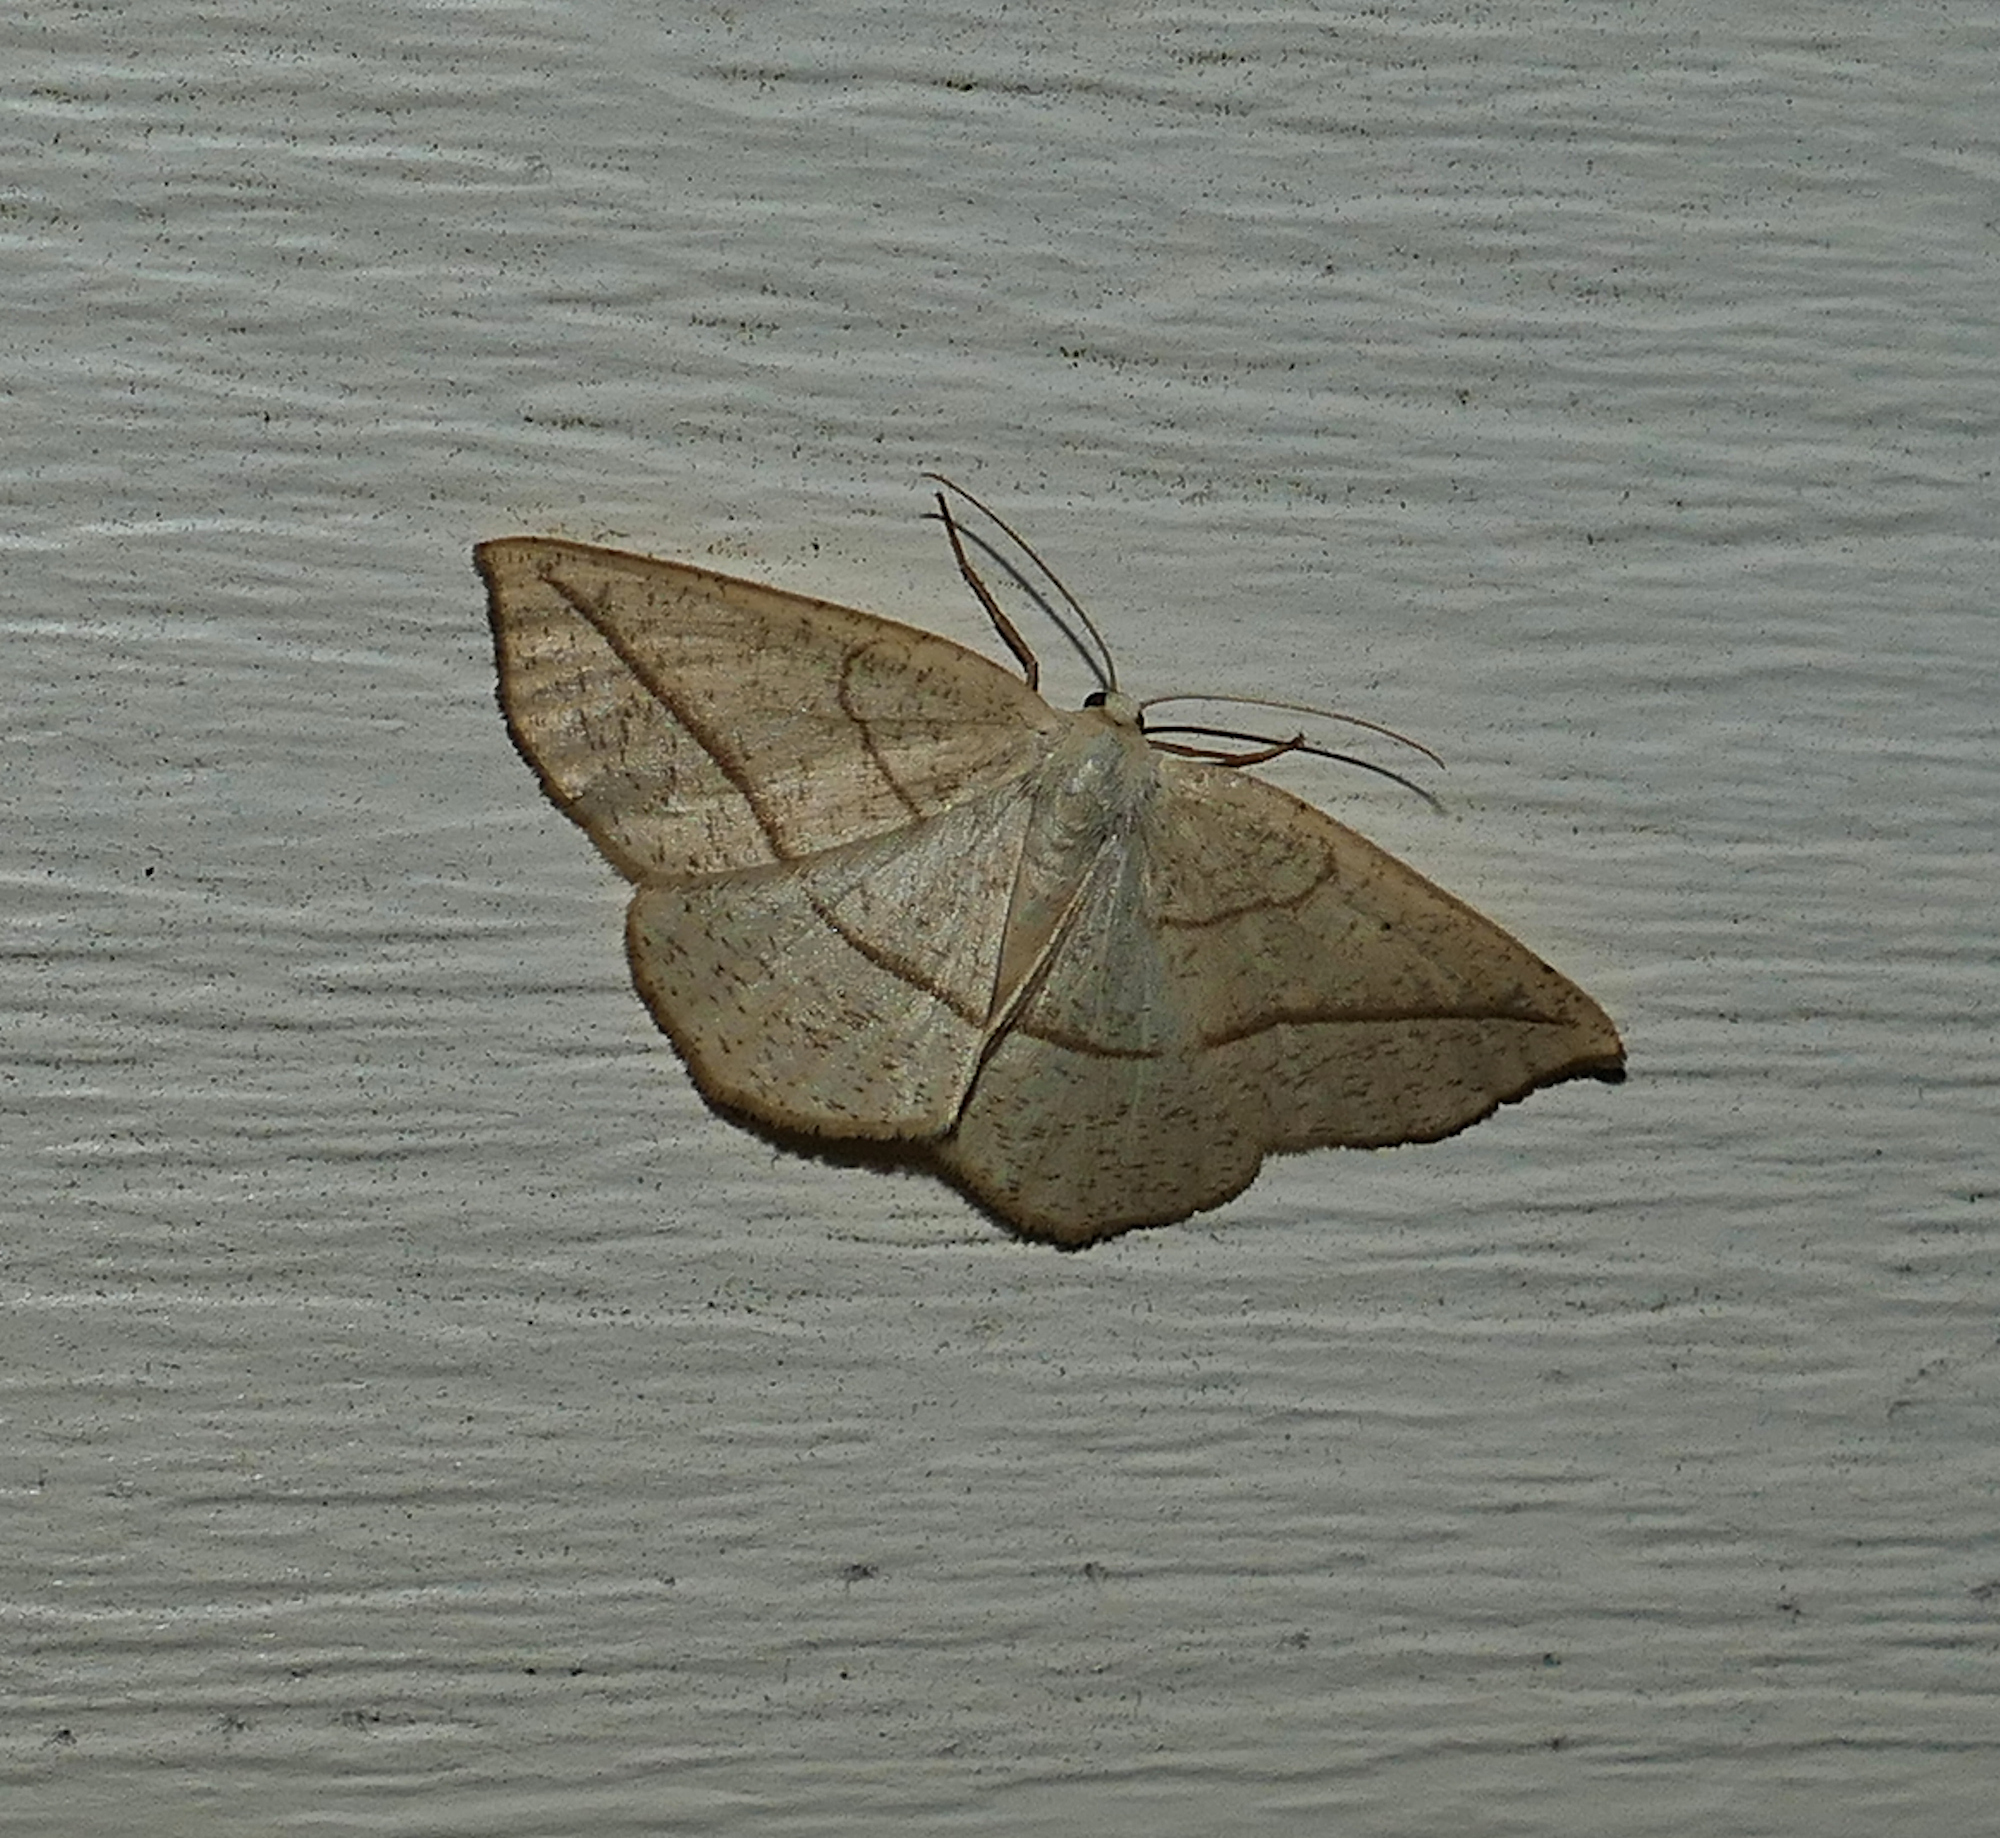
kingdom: Animalia
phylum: Arthropoda
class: Insecta
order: Lepidoptera
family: Geometridae
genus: Eusarca
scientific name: Eusarca confusaria
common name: Confused eusarca
